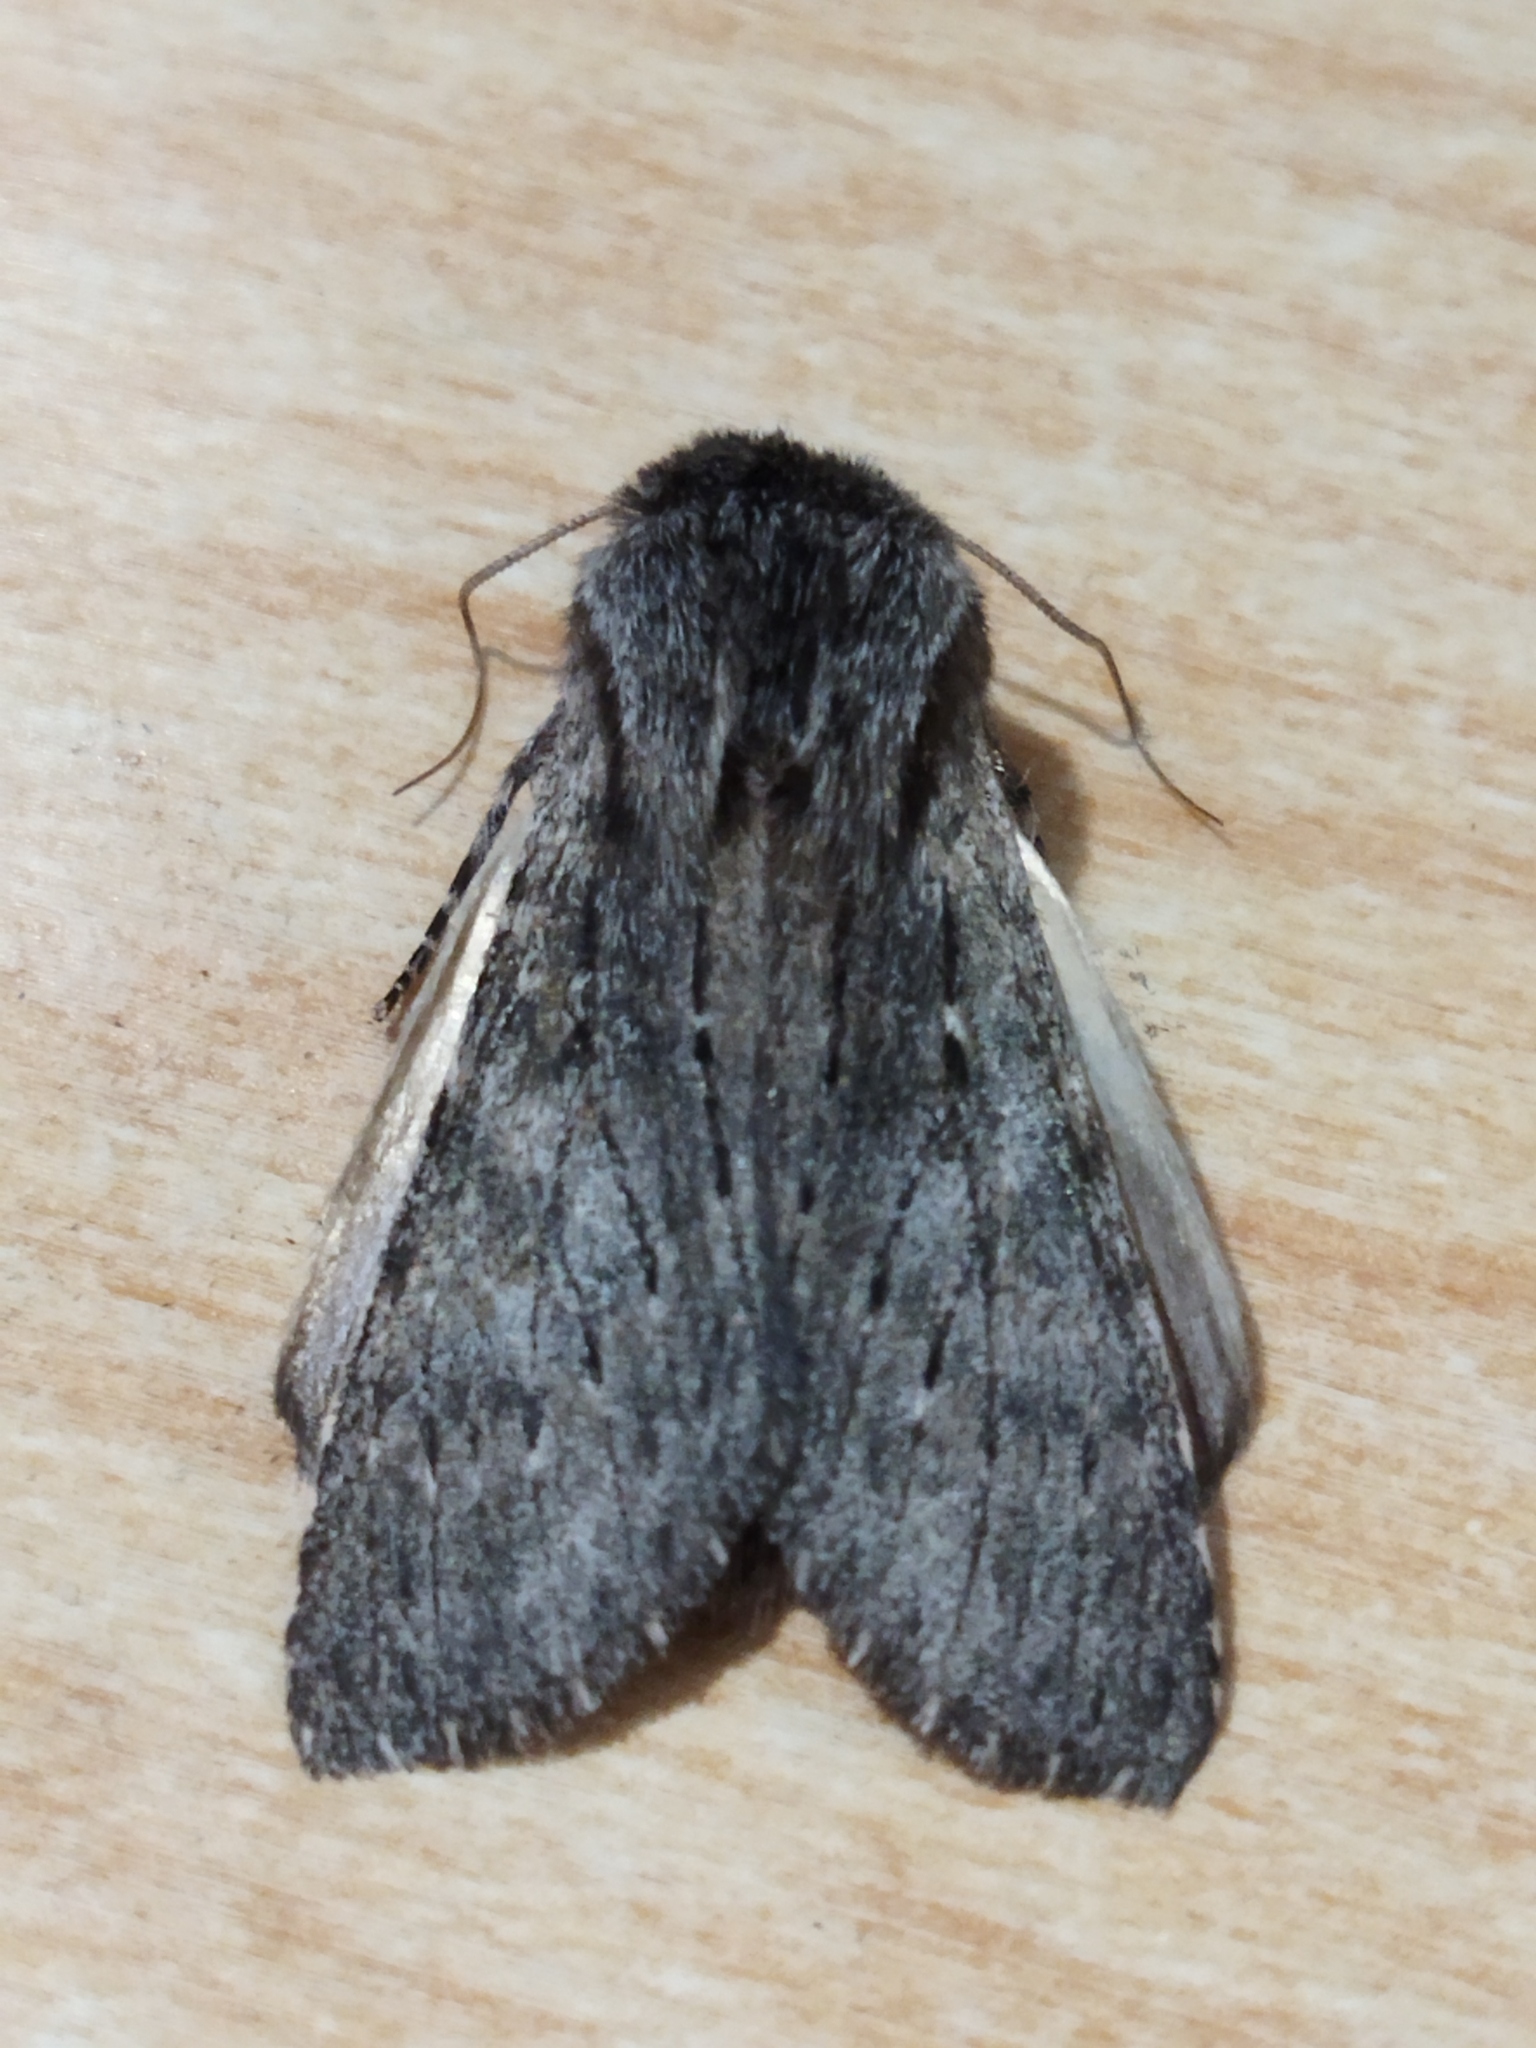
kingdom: Animalia
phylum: Arthropoda
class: Insecta
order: Lepidoptera
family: Notodontidae
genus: Dicranura
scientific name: Dicranura ulmi
